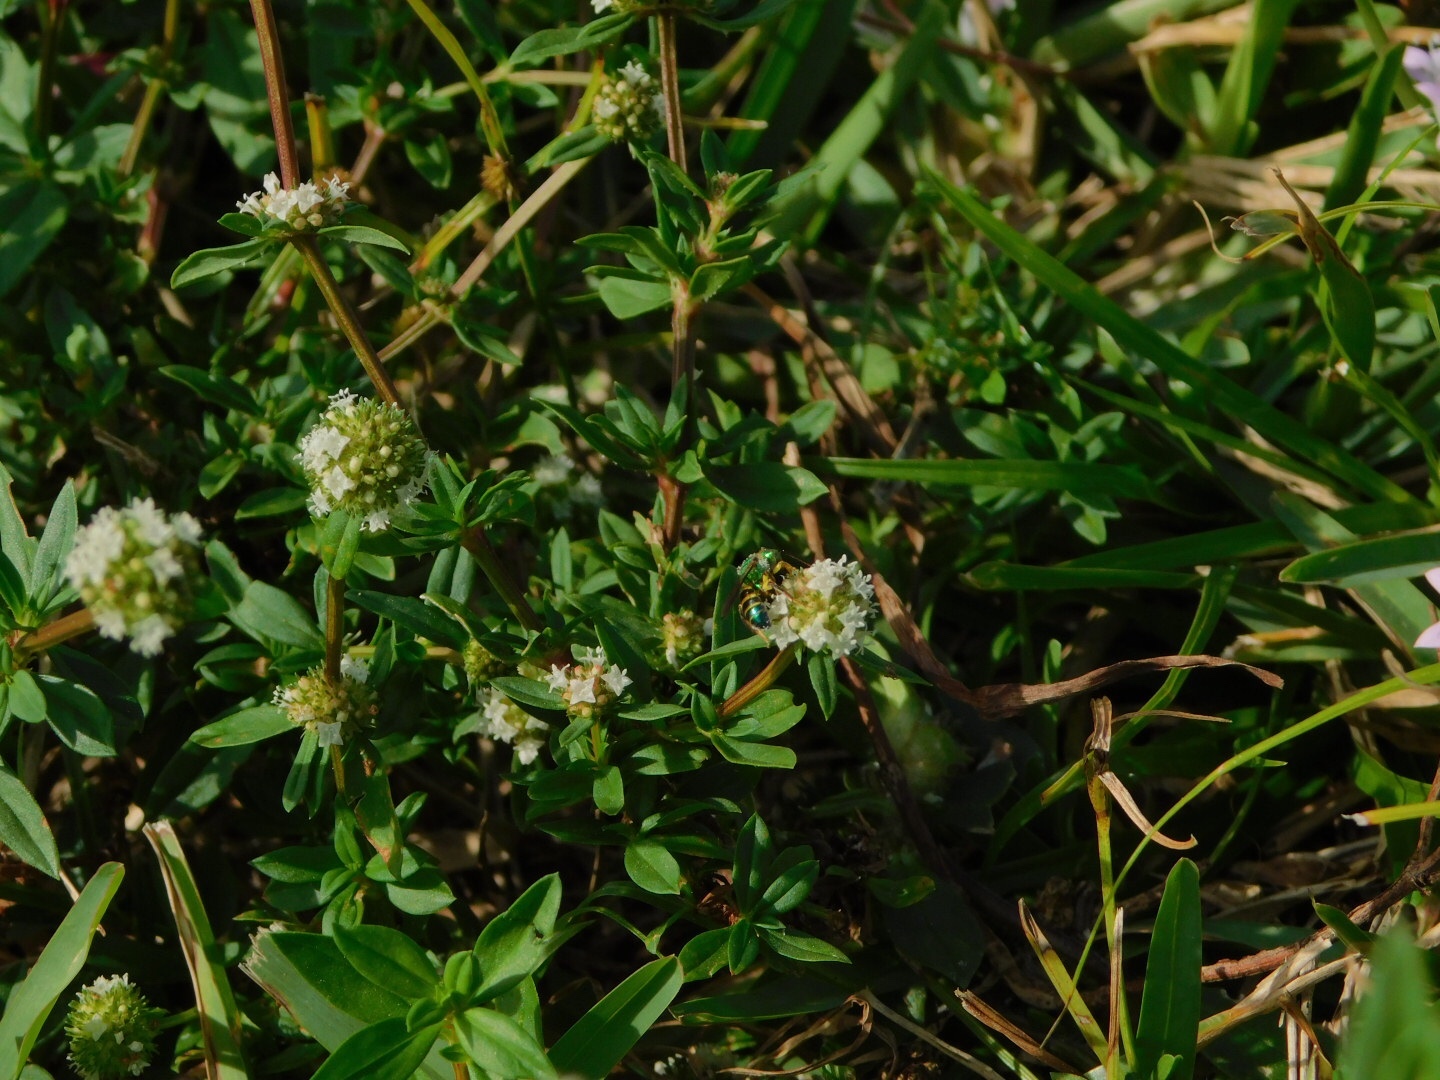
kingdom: Animalia
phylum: Arthropoda
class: Insecta
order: Hymenoptera
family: Halictidae
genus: Agapostemon
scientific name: Agapostemon poeyi
